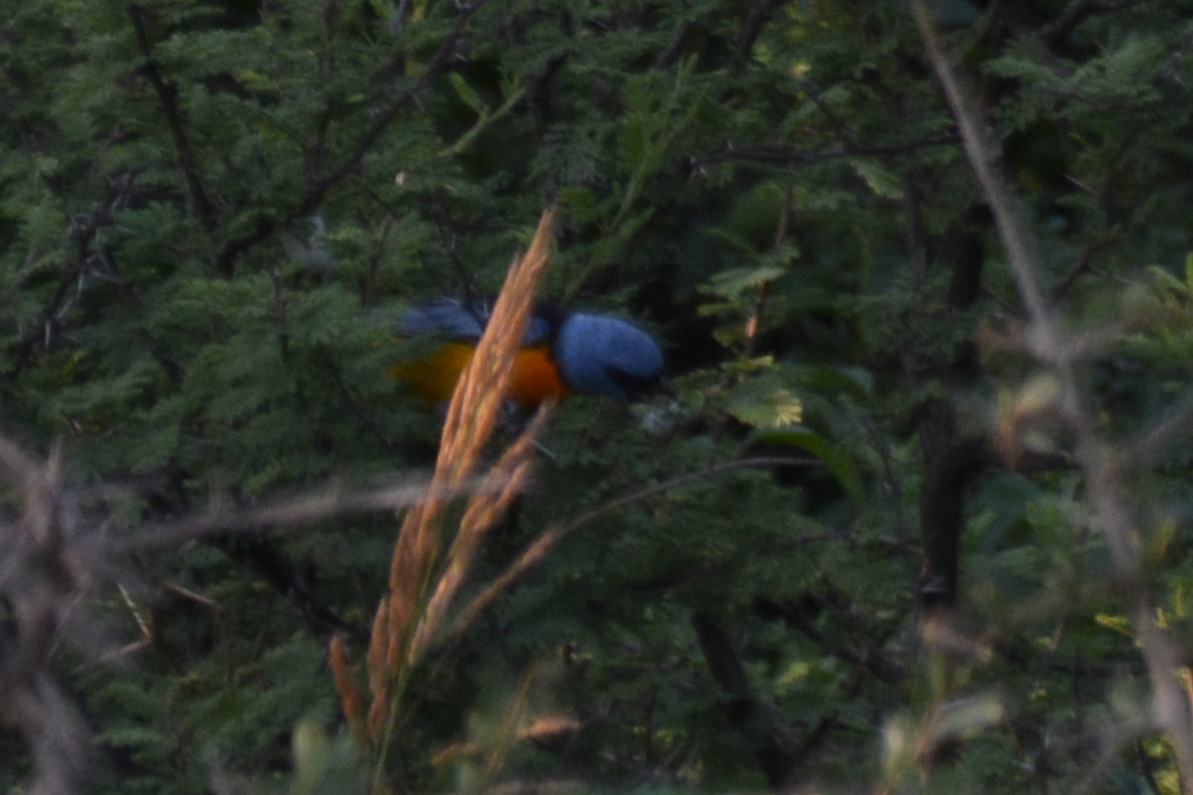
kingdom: Animalia
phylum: Chordata
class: Aves
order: Passeriformes
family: Thraupidae
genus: Rauenia
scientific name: Rauenia bonariensis
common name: Blue-and-yellow tanager
